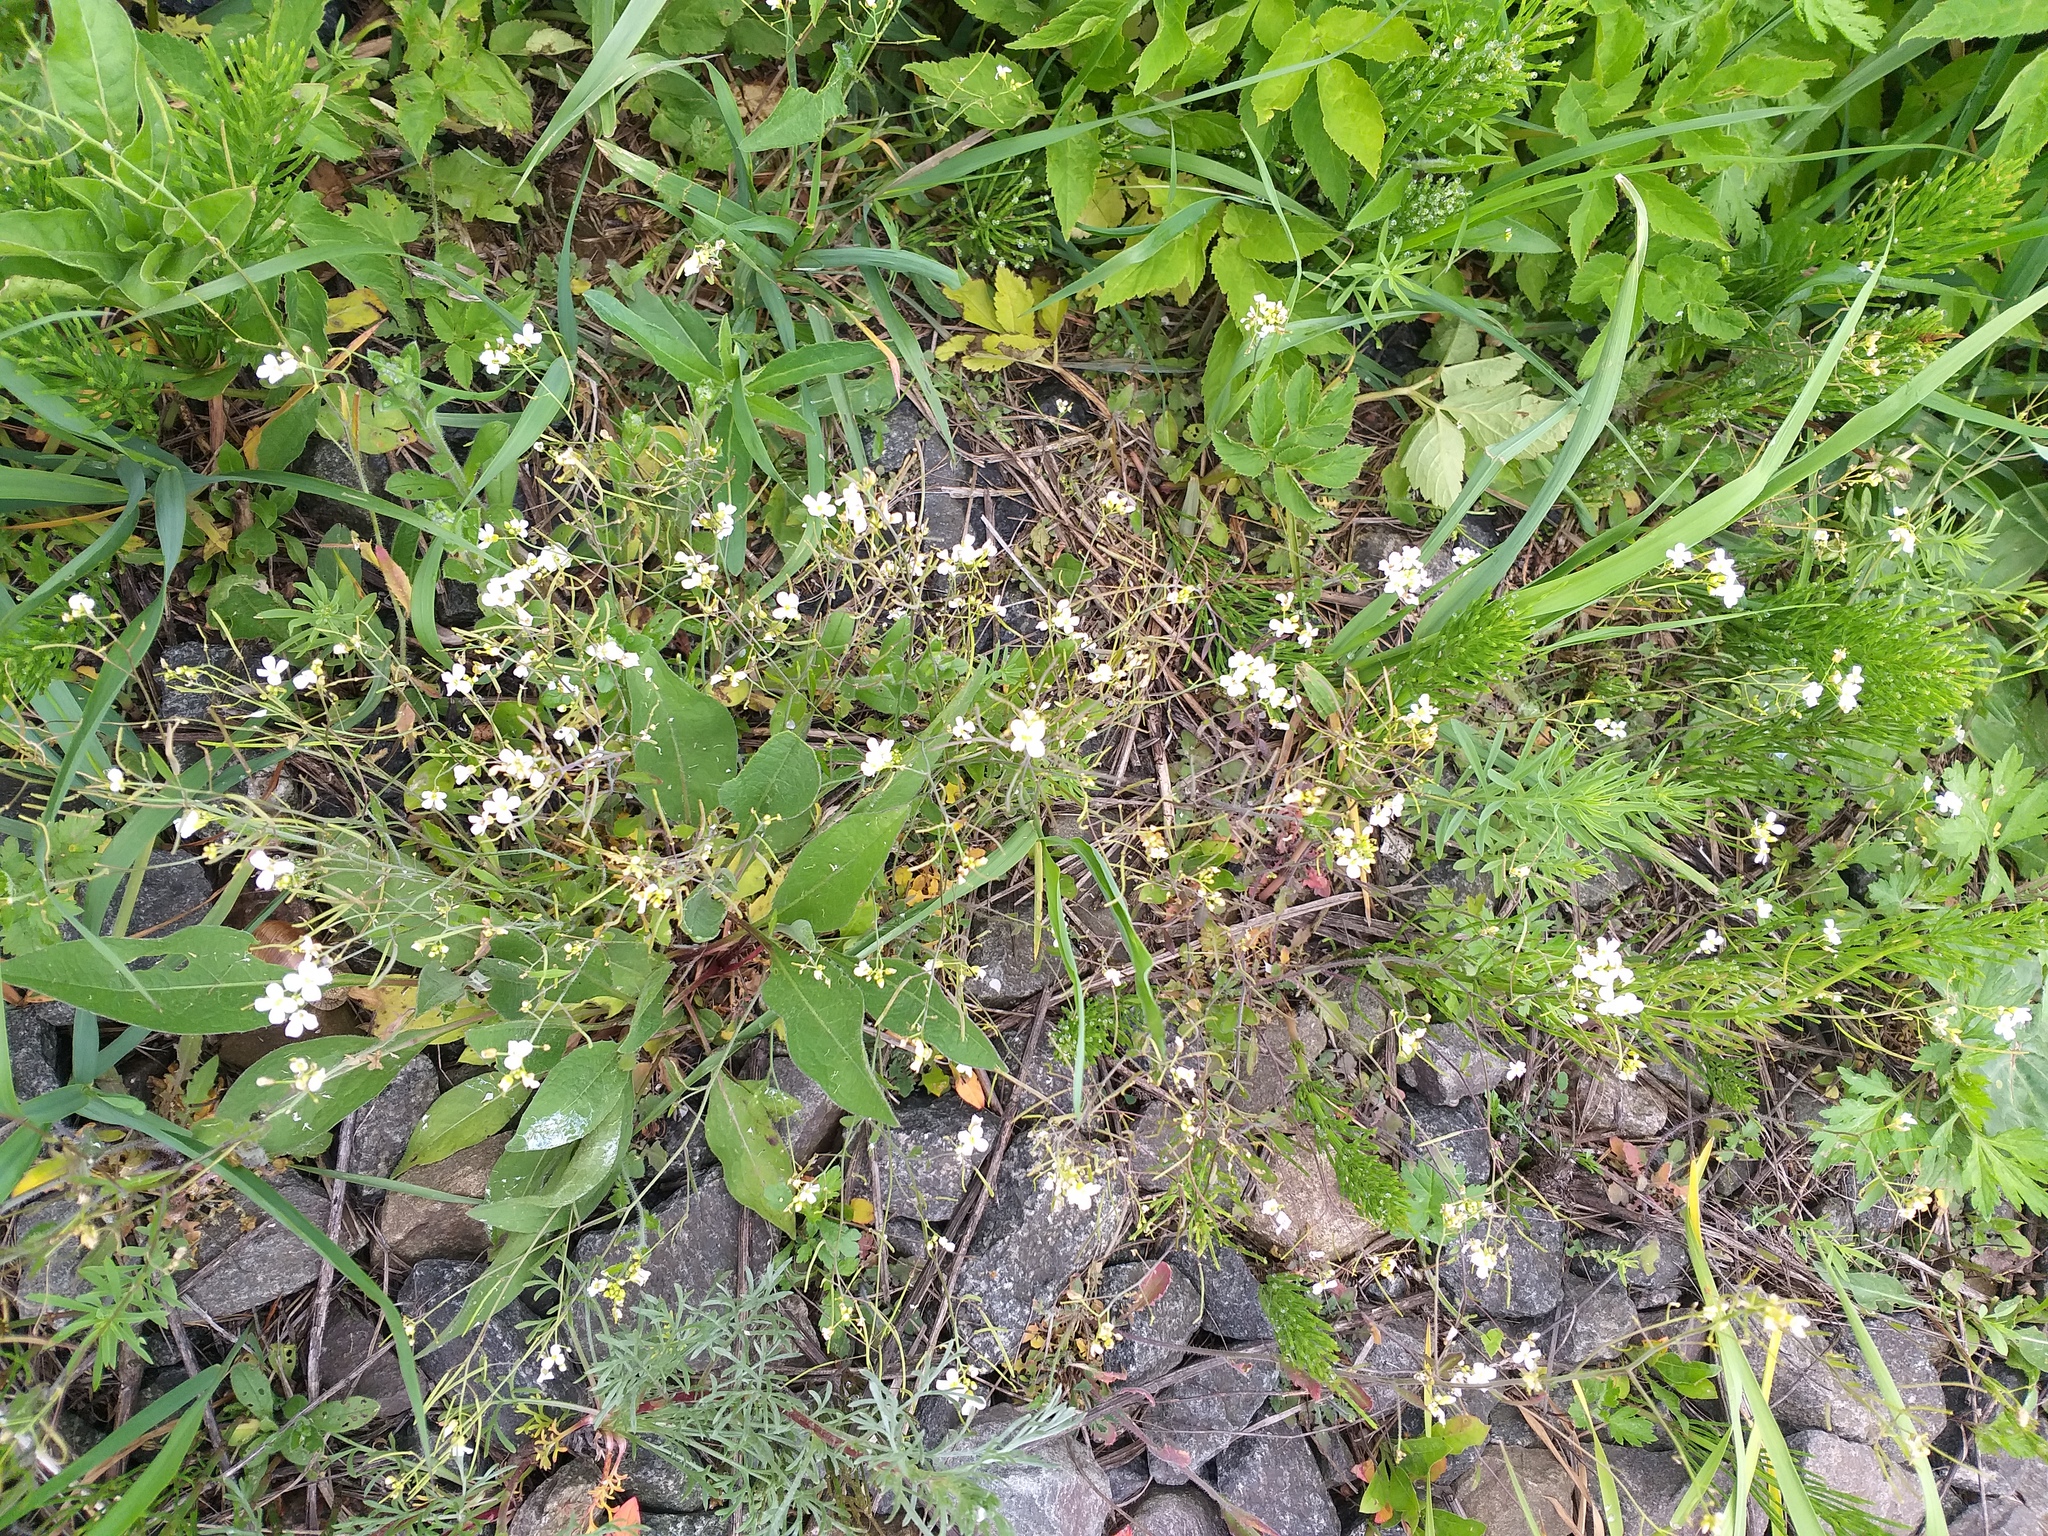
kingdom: Plantae
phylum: Tracheophyta
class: Magnoliopsida
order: Brassicales
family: Brassicaceae
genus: Arabidopsis
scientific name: Arabidopsis arenosa
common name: Sand rock-cress
